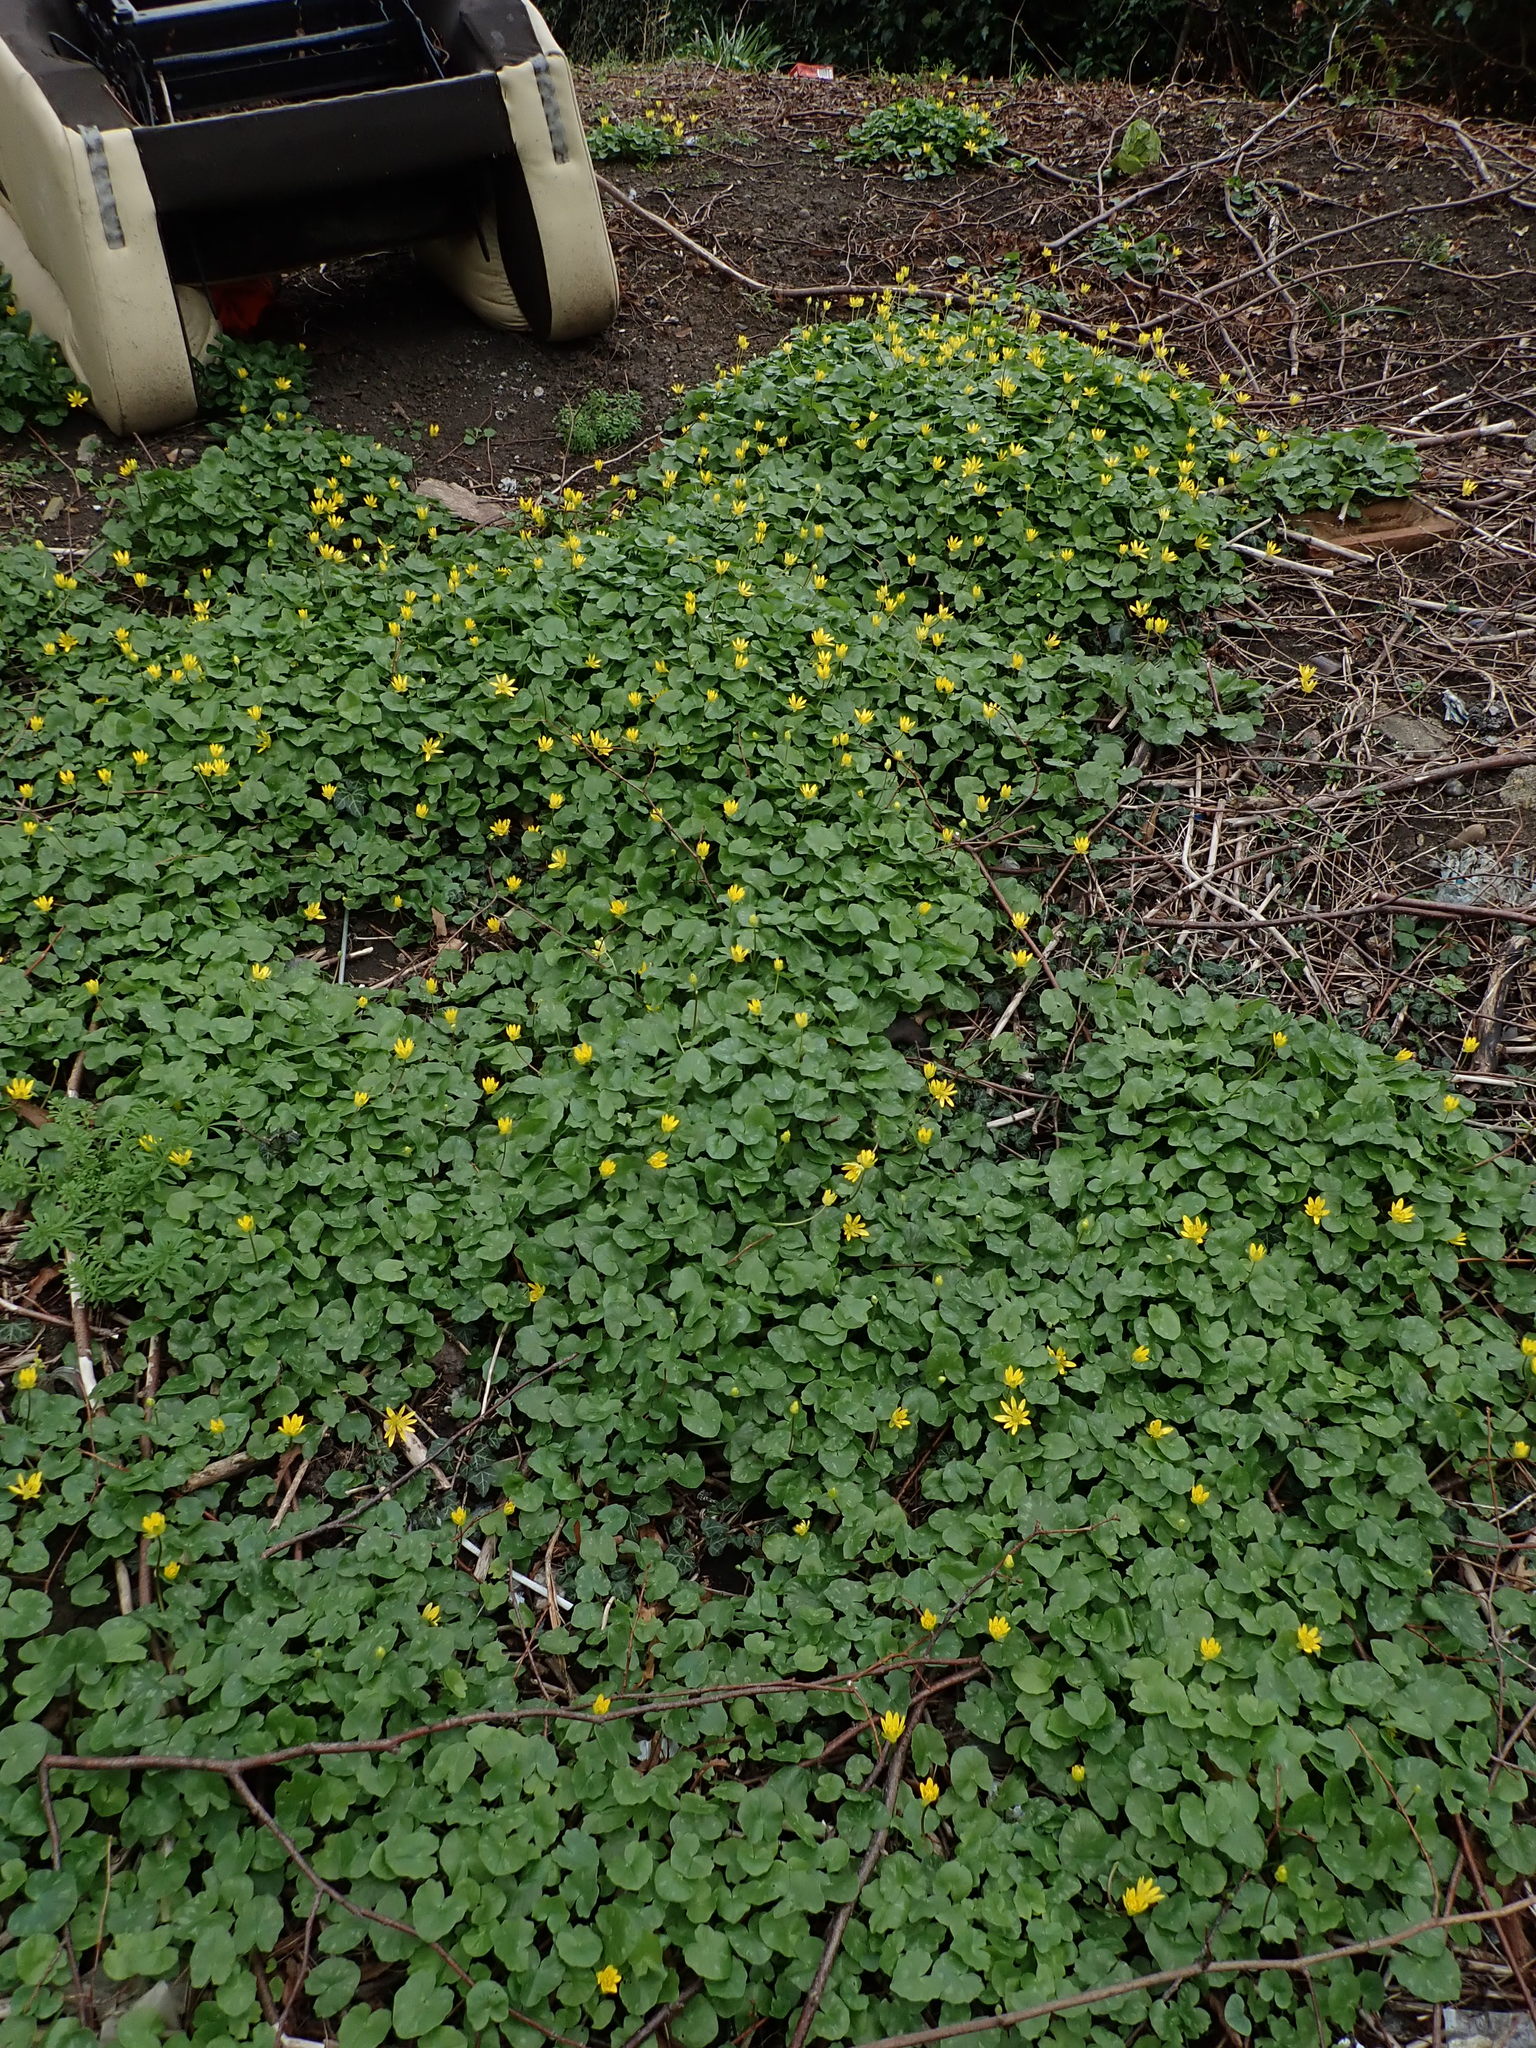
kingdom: Plantae
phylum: Tracheophyta
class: Magnoliopsida
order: Ranunculales
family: Ranunculaceae
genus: Ficaria
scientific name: Ficaria verna
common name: Lesser celandine
